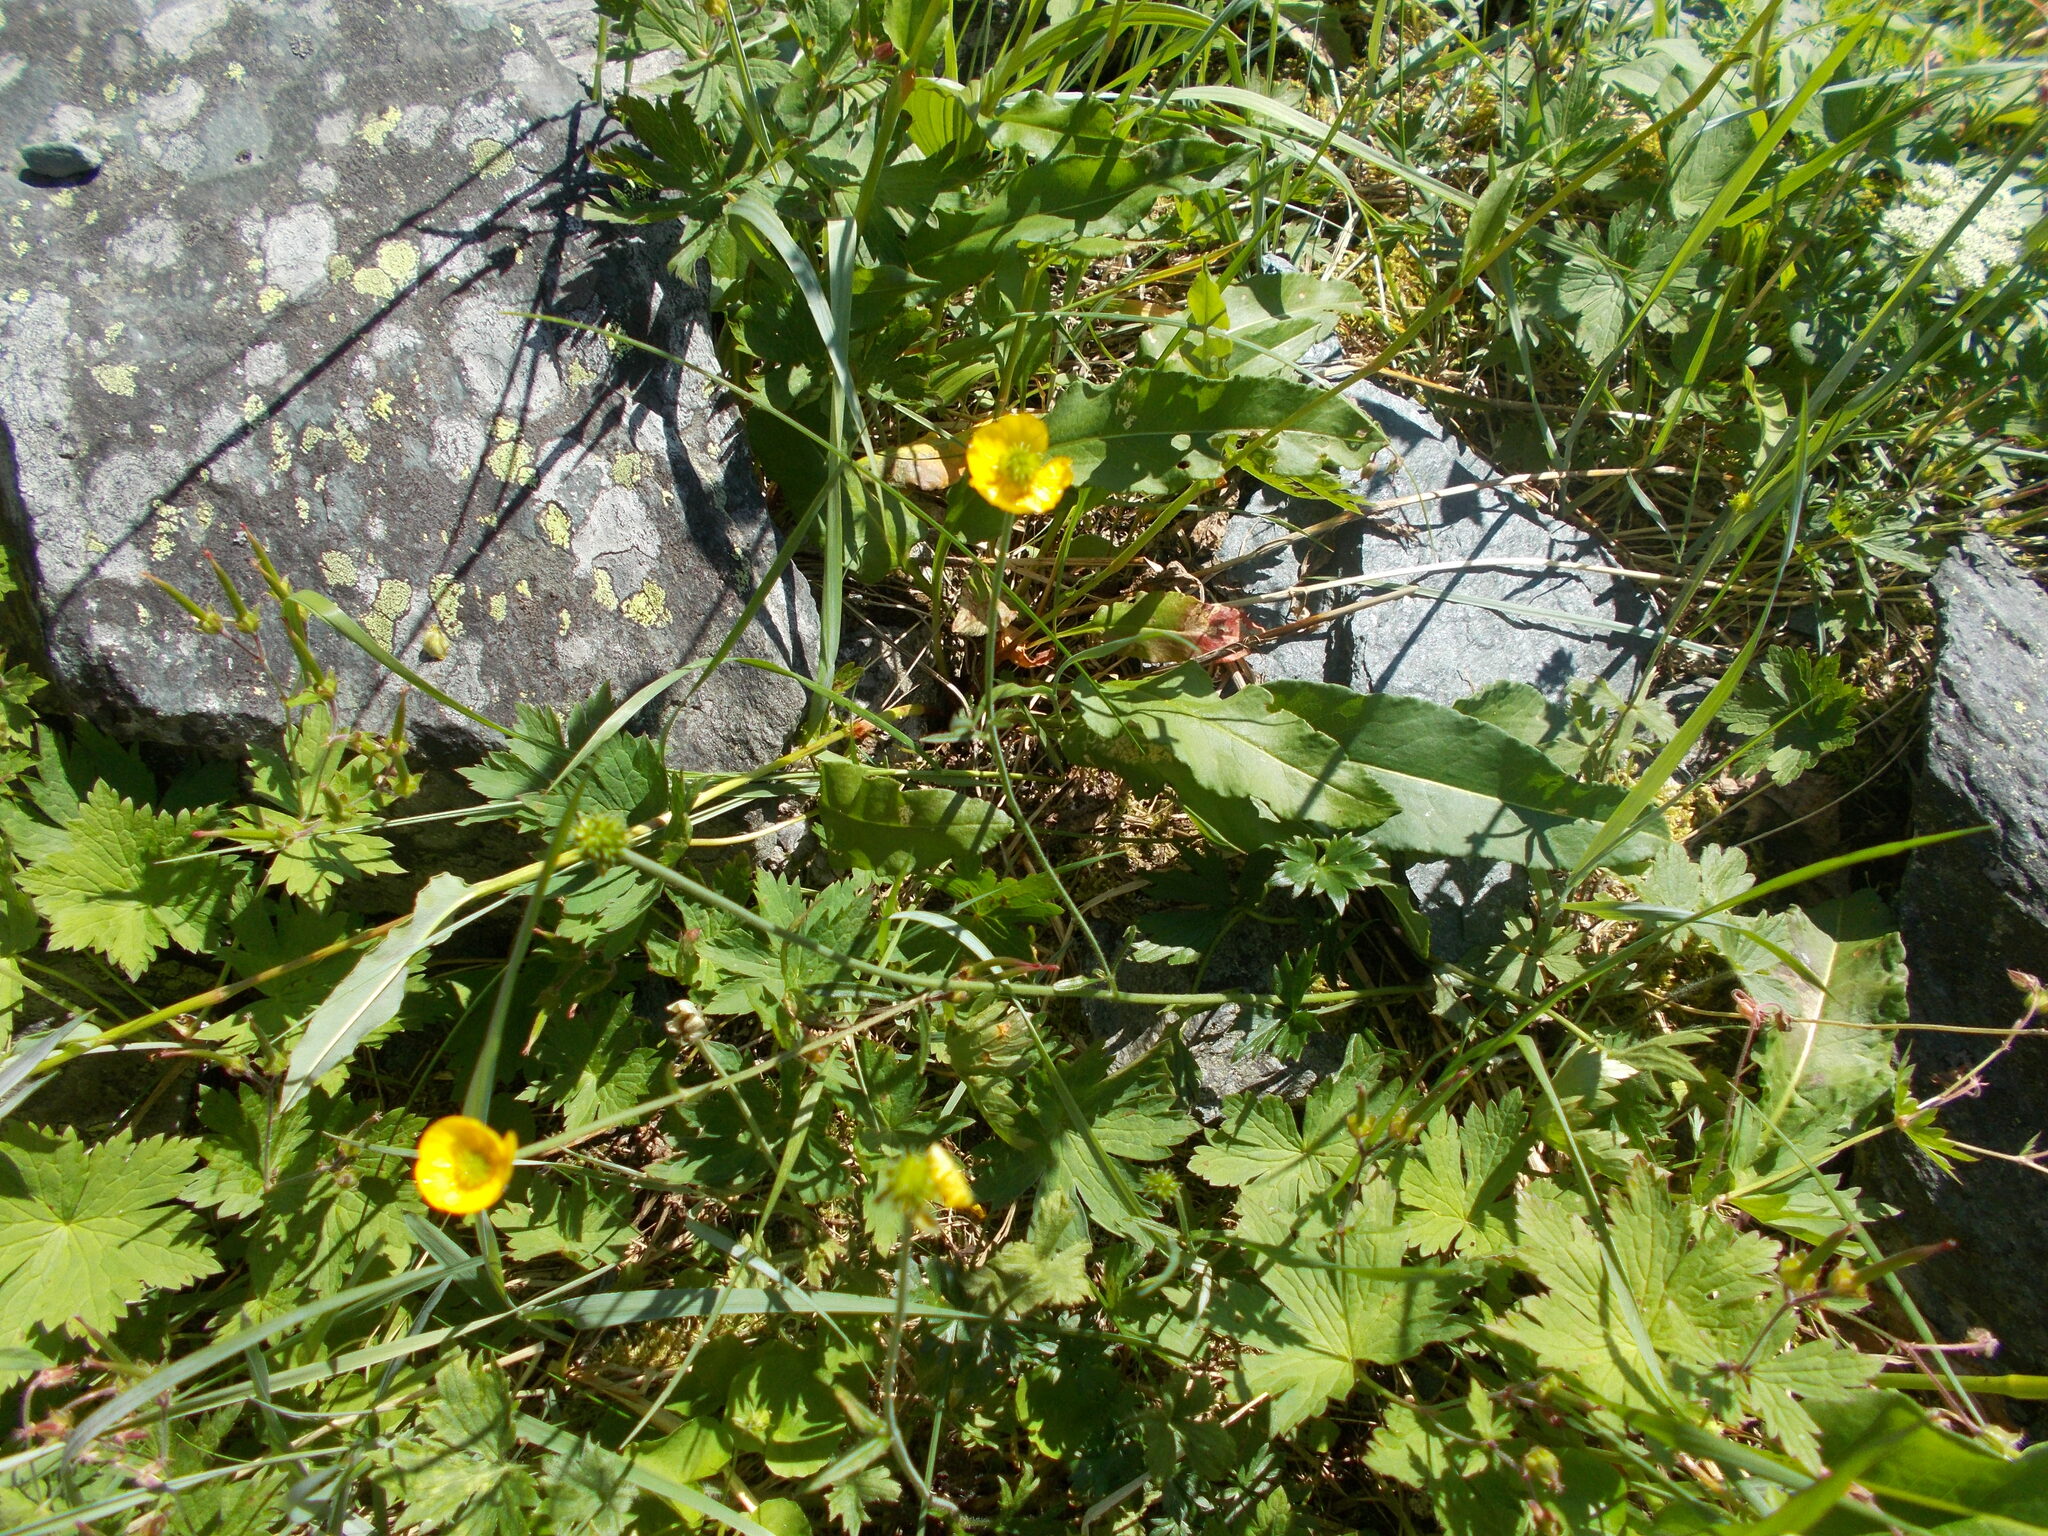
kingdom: Plantae
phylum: Tracheophyta
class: Magnoliopsida
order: Ranunculales
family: Ranunculaceae
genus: Ranunculus
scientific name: Ranunculus propinquus
